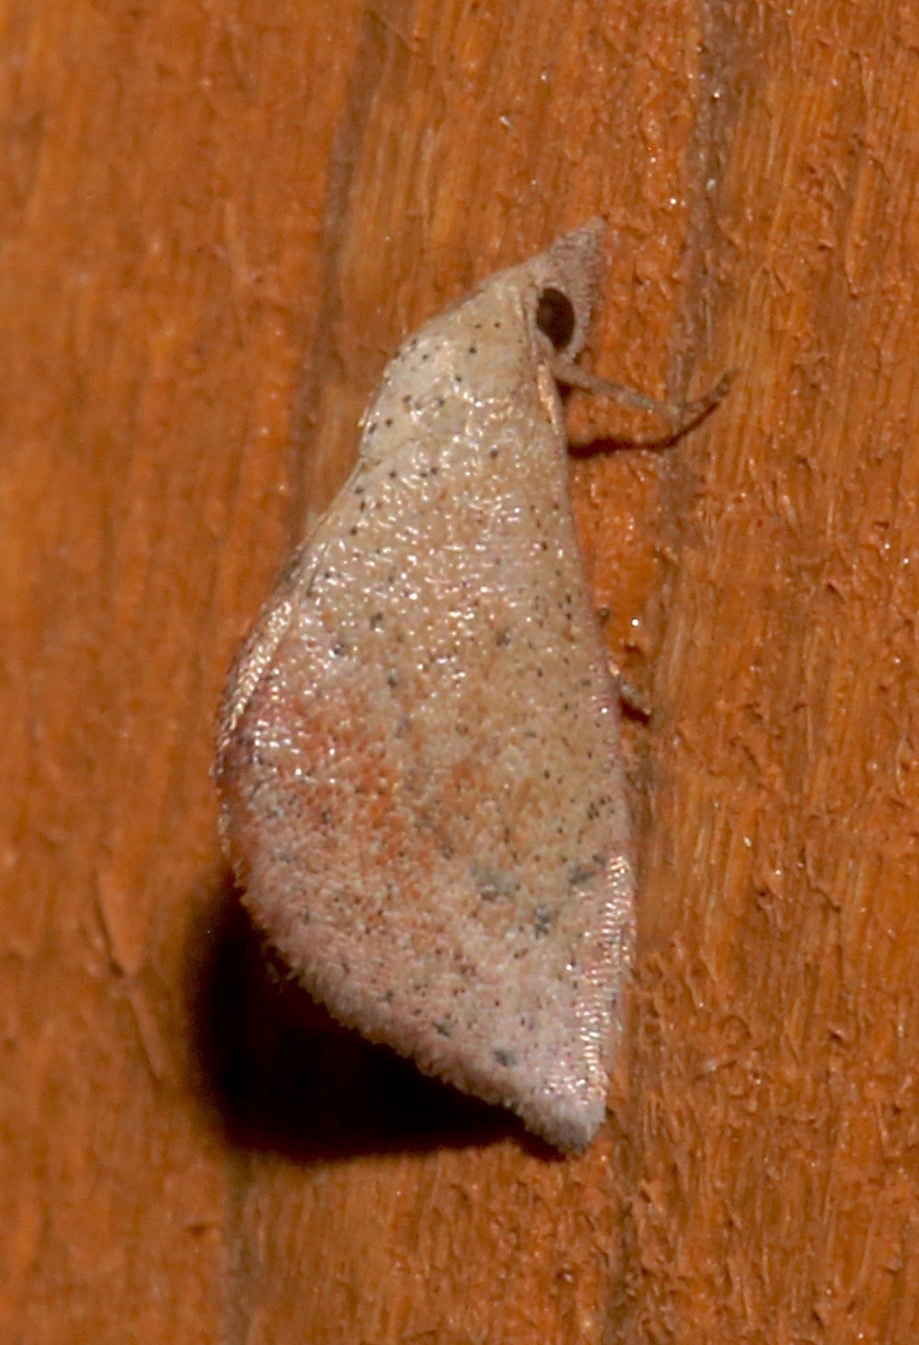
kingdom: Animalia
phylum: Arthropoda
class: Insecta
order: Lepidoptera
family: Noctuidae
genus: Proroblemma
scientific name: Proroblemma testa
